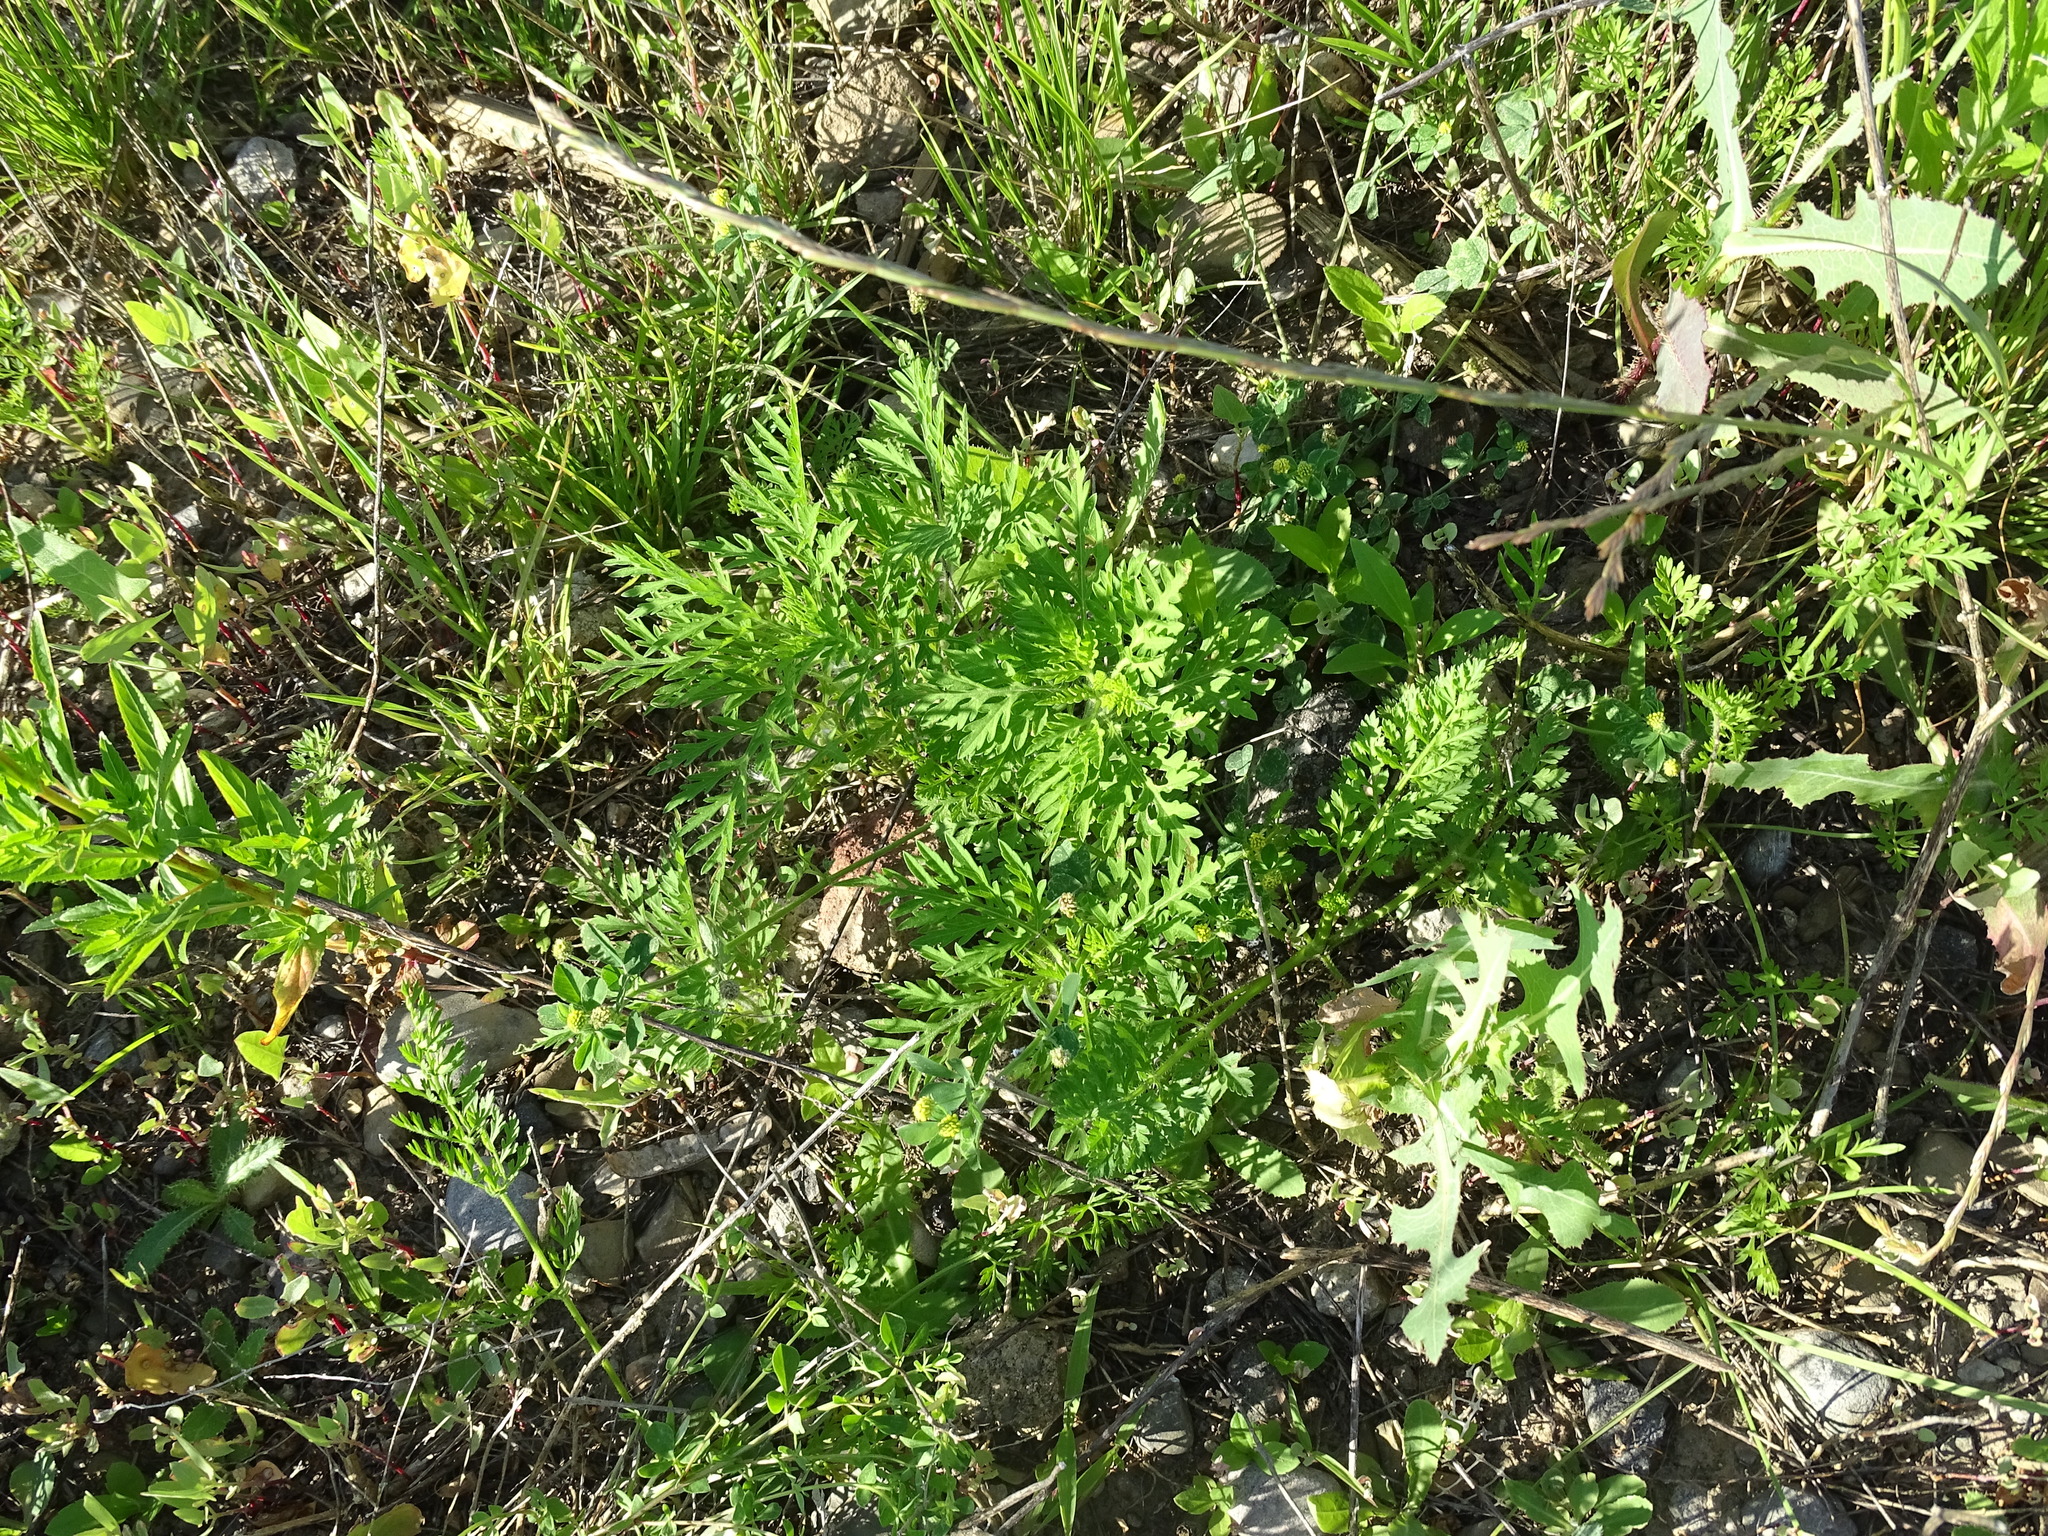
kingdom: Plantae
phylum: Tracheophyta
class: Magnoliopsida
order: Asterales
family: Asteraceae
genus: Ambrosia
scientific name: Ambrosia artemisiifolia
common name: Annual ragweed
